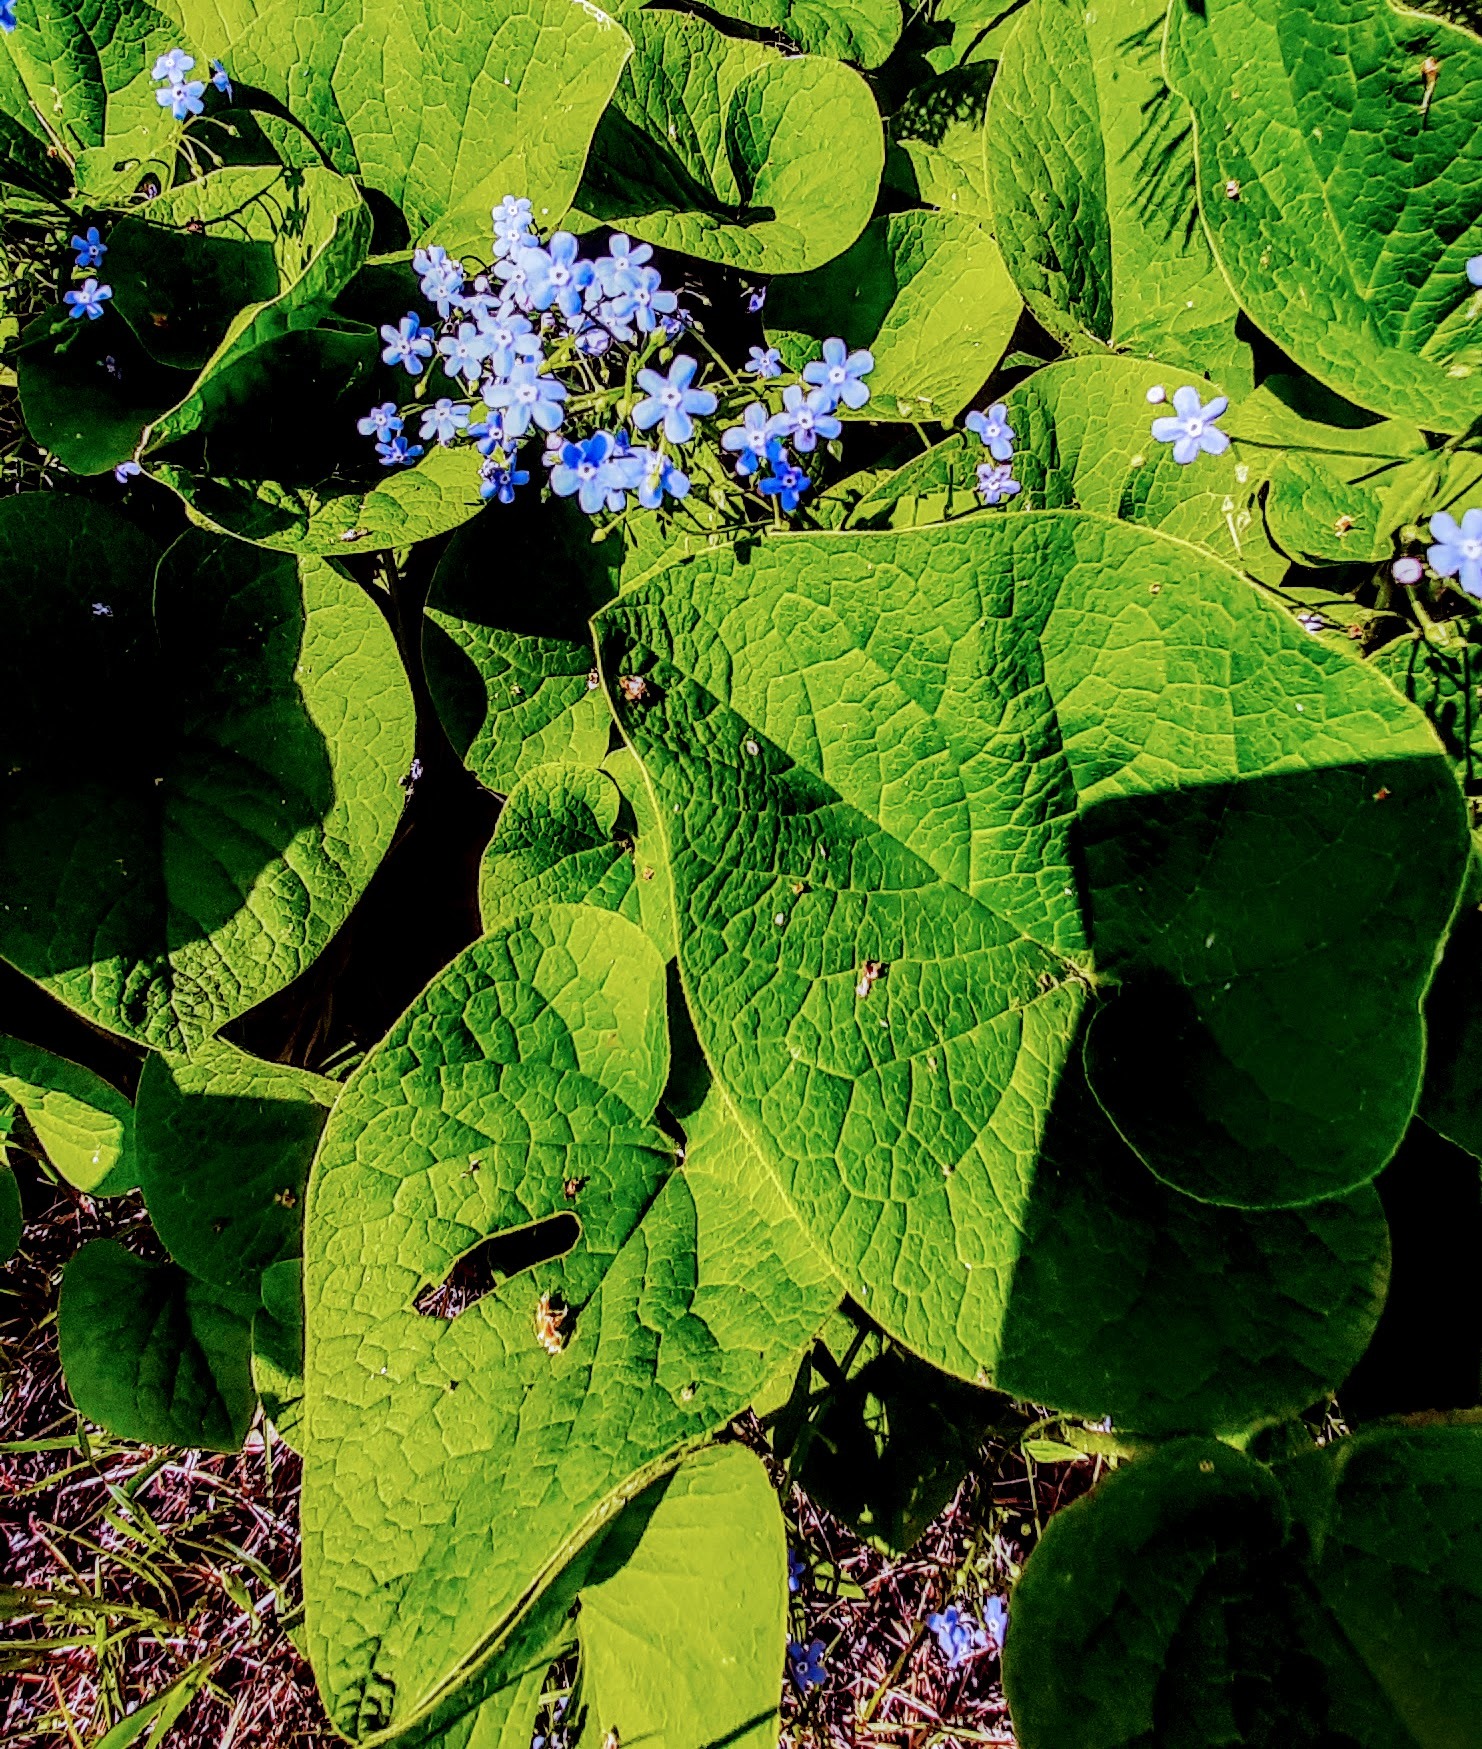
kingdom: Plantae
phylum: Tracheophyta
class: Magnoliopsida
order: Boraginales
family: Boraginaceae
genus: Brunnera
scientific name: Brunnera sibirica
